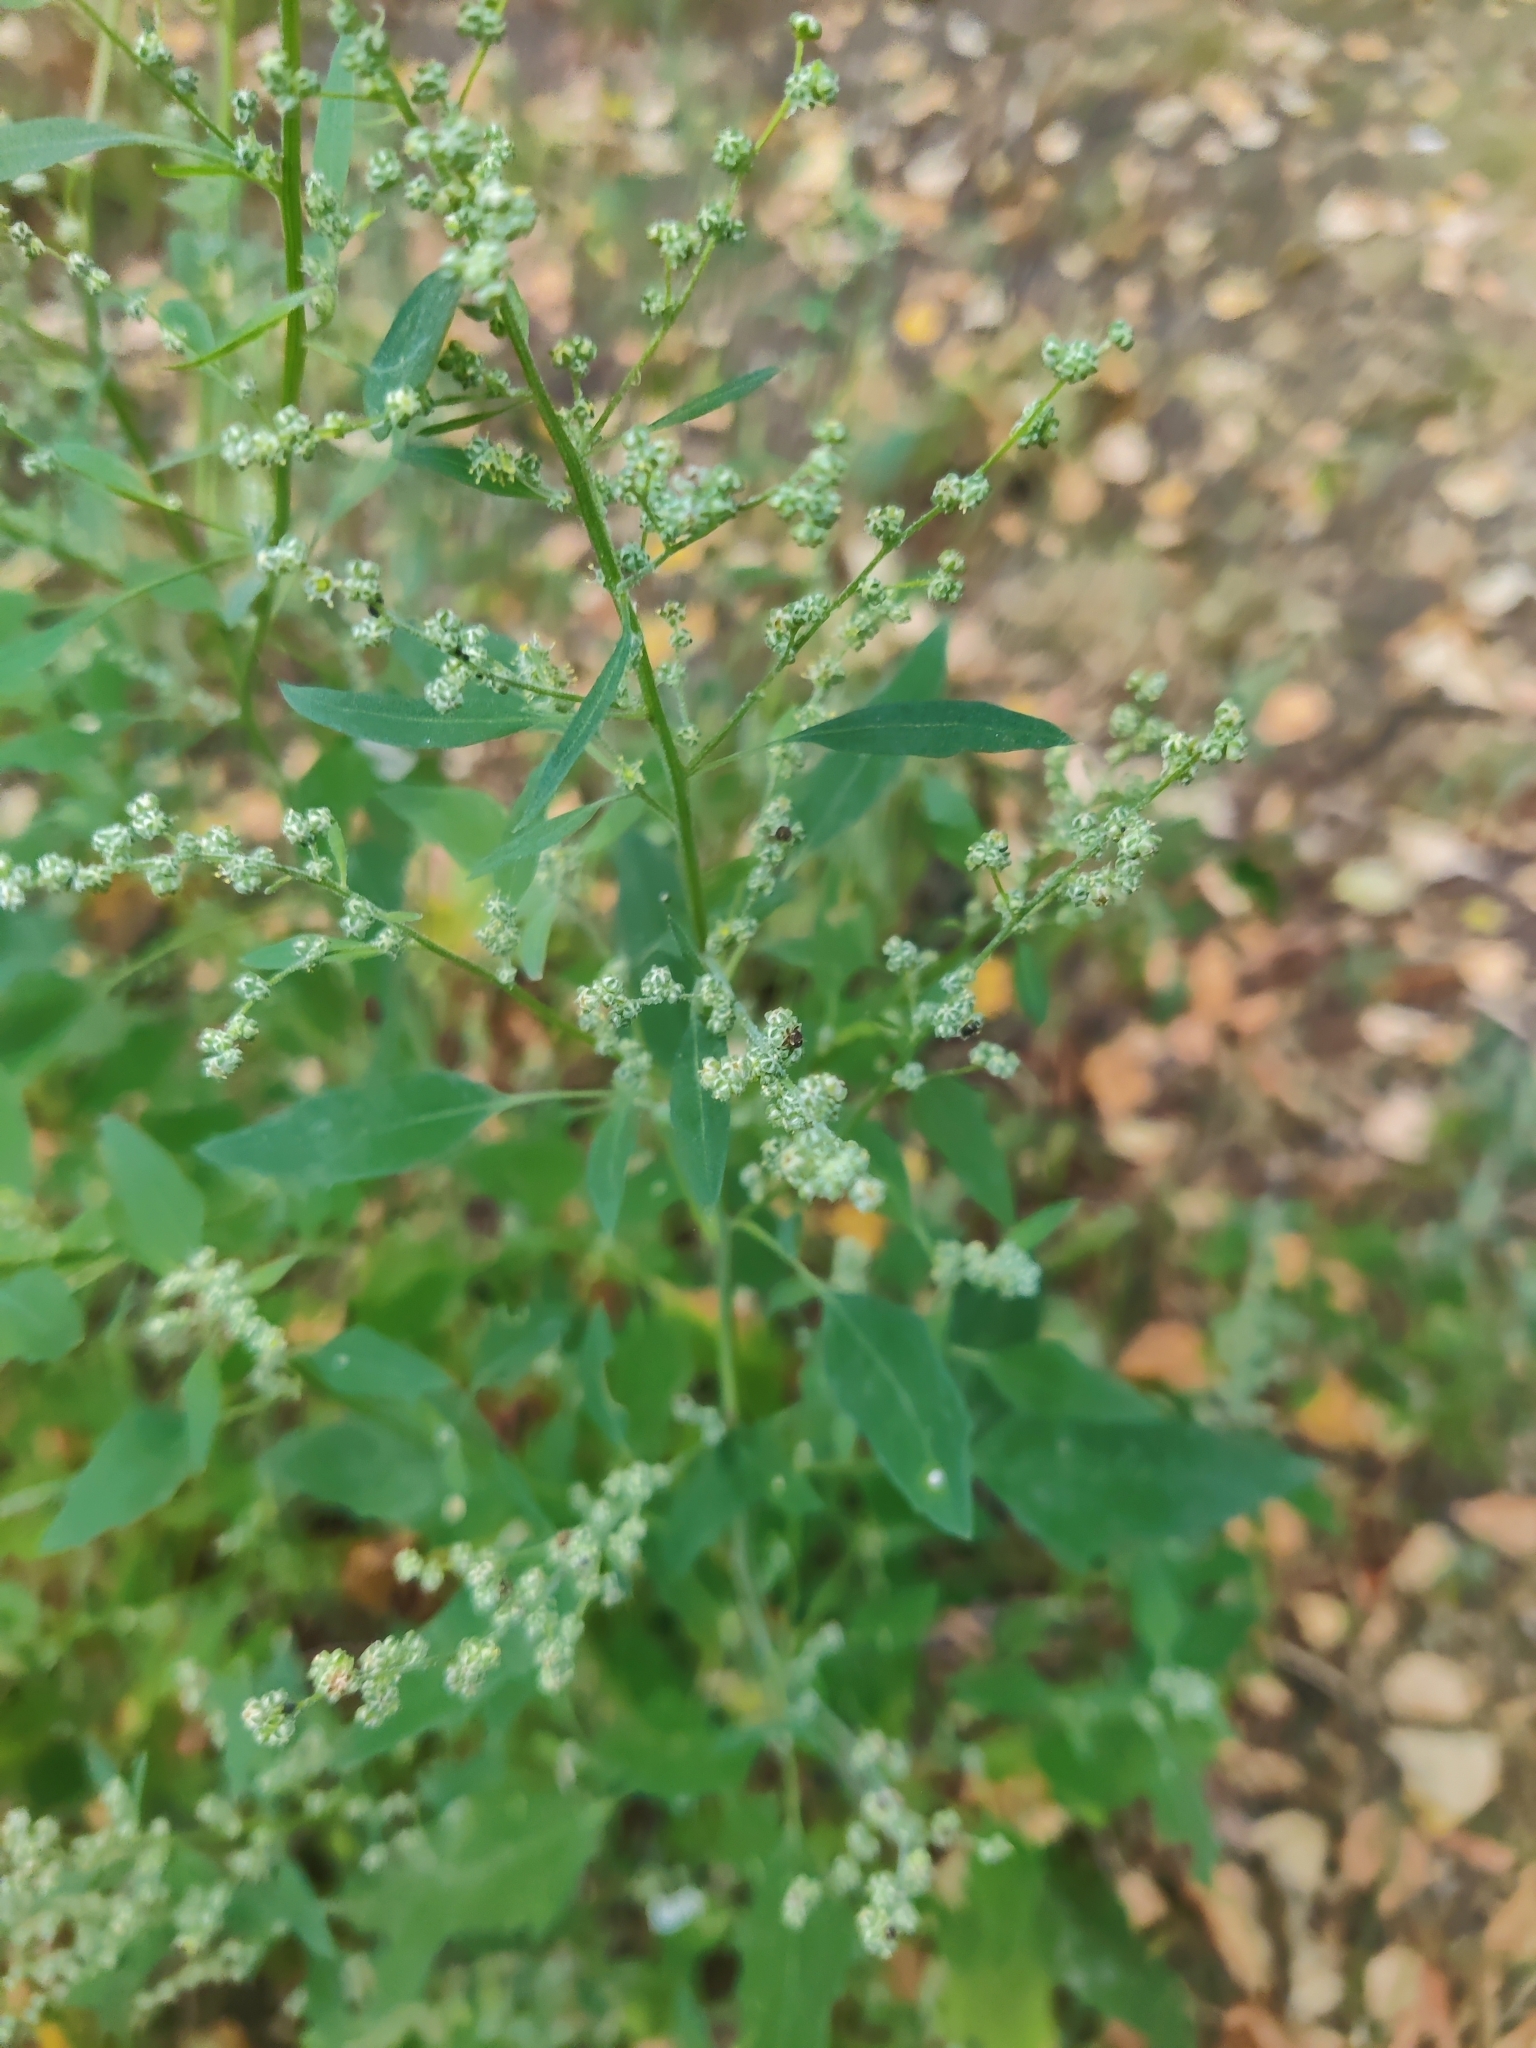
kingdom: Plantae
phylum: Tracheophyta
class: Magnoliopsida
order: Caryophyllales
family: Amaranthaceae
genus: Chenopodium
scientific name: Chenopodium album
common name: Fat-hen
